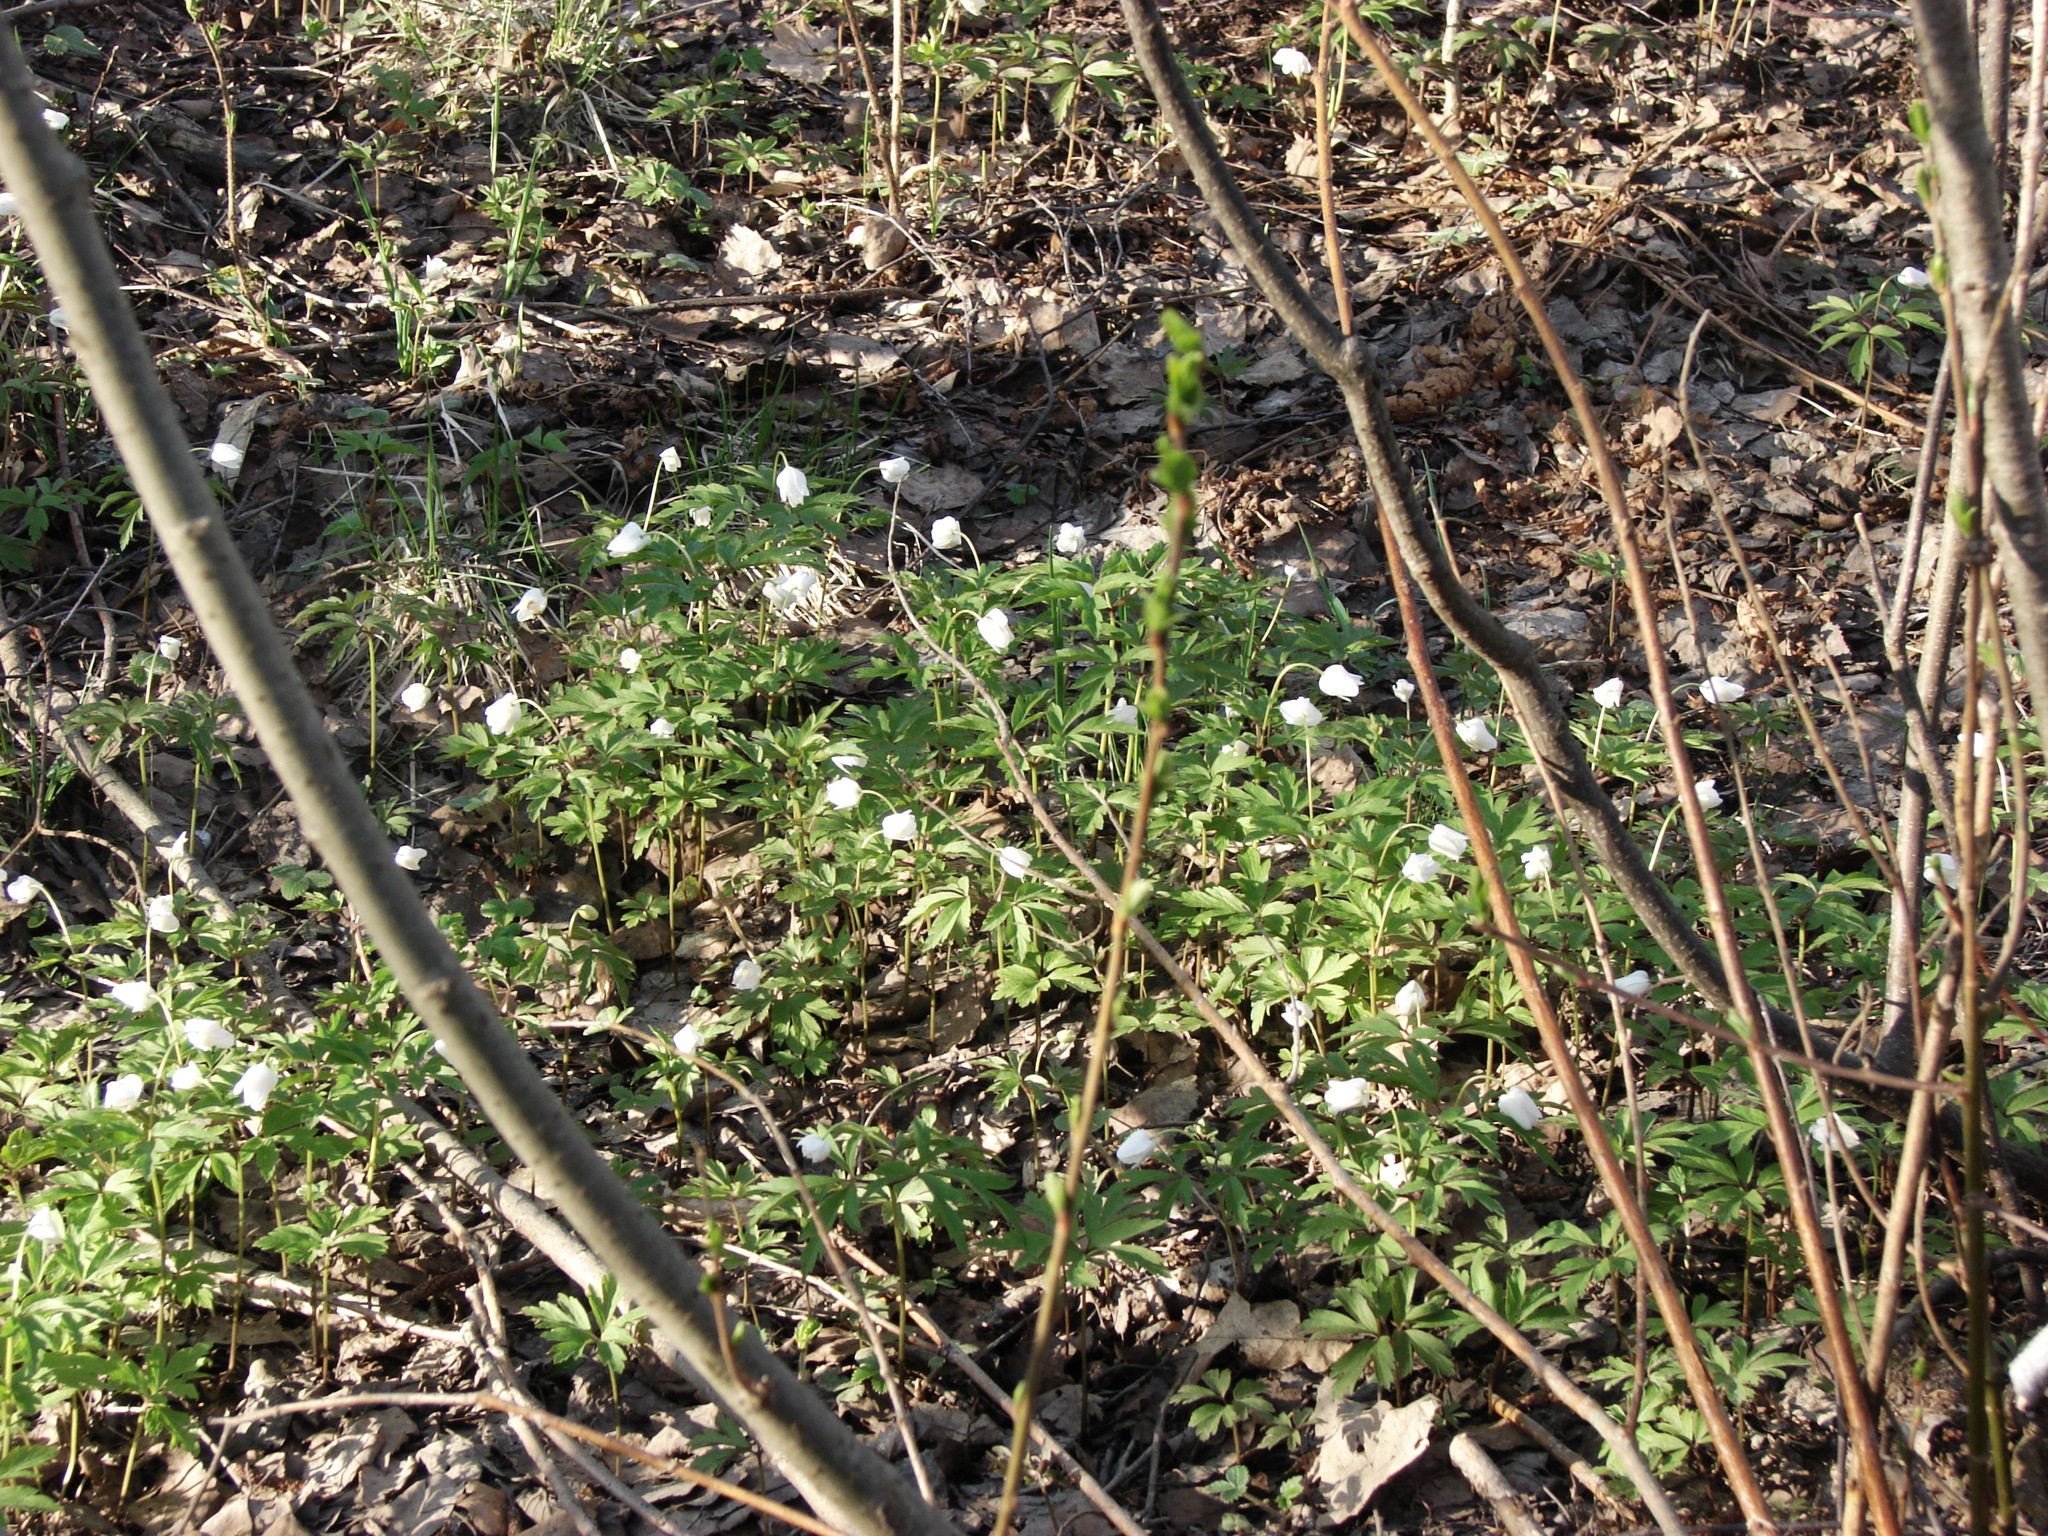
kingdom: Plantae
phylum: Tracheophyta
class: Magnoliopsida
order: Ranunculales
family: Ranunculaceae
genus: Anemone
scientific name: Anemone nemorosa
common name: Wood anemone
